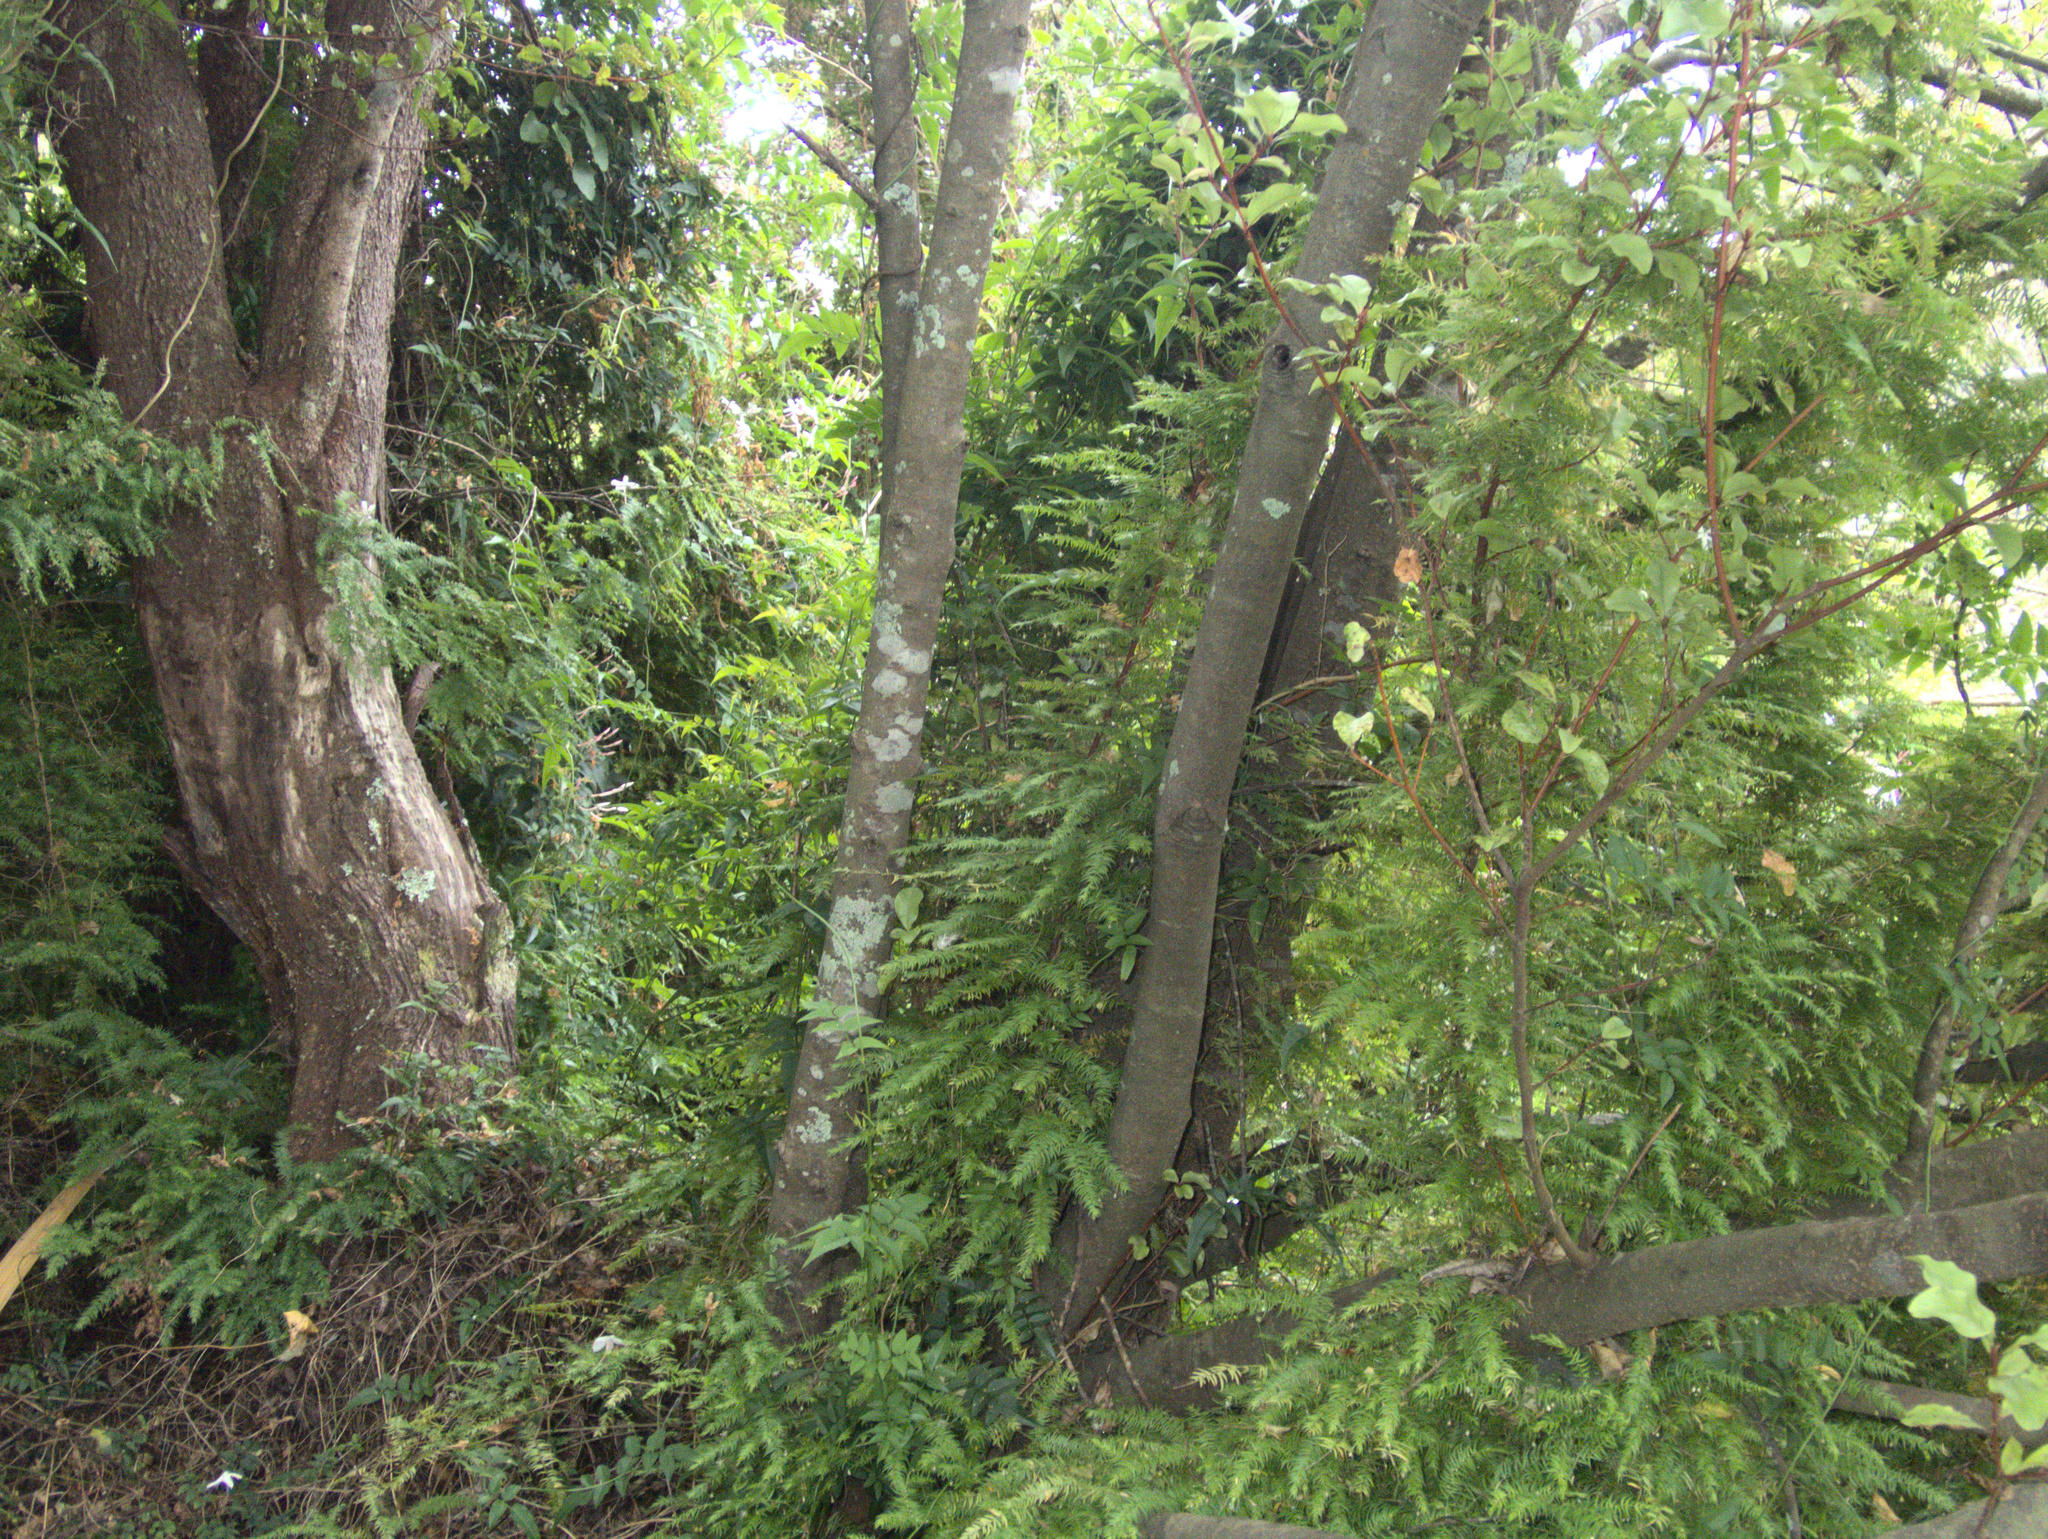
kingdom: Plantae
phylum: Tracheophyta
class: Liliopsida
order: Asparagales
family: Asparagaceae
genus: Asparagus
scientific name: Asparagus scandens
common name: Asparagus-fern
